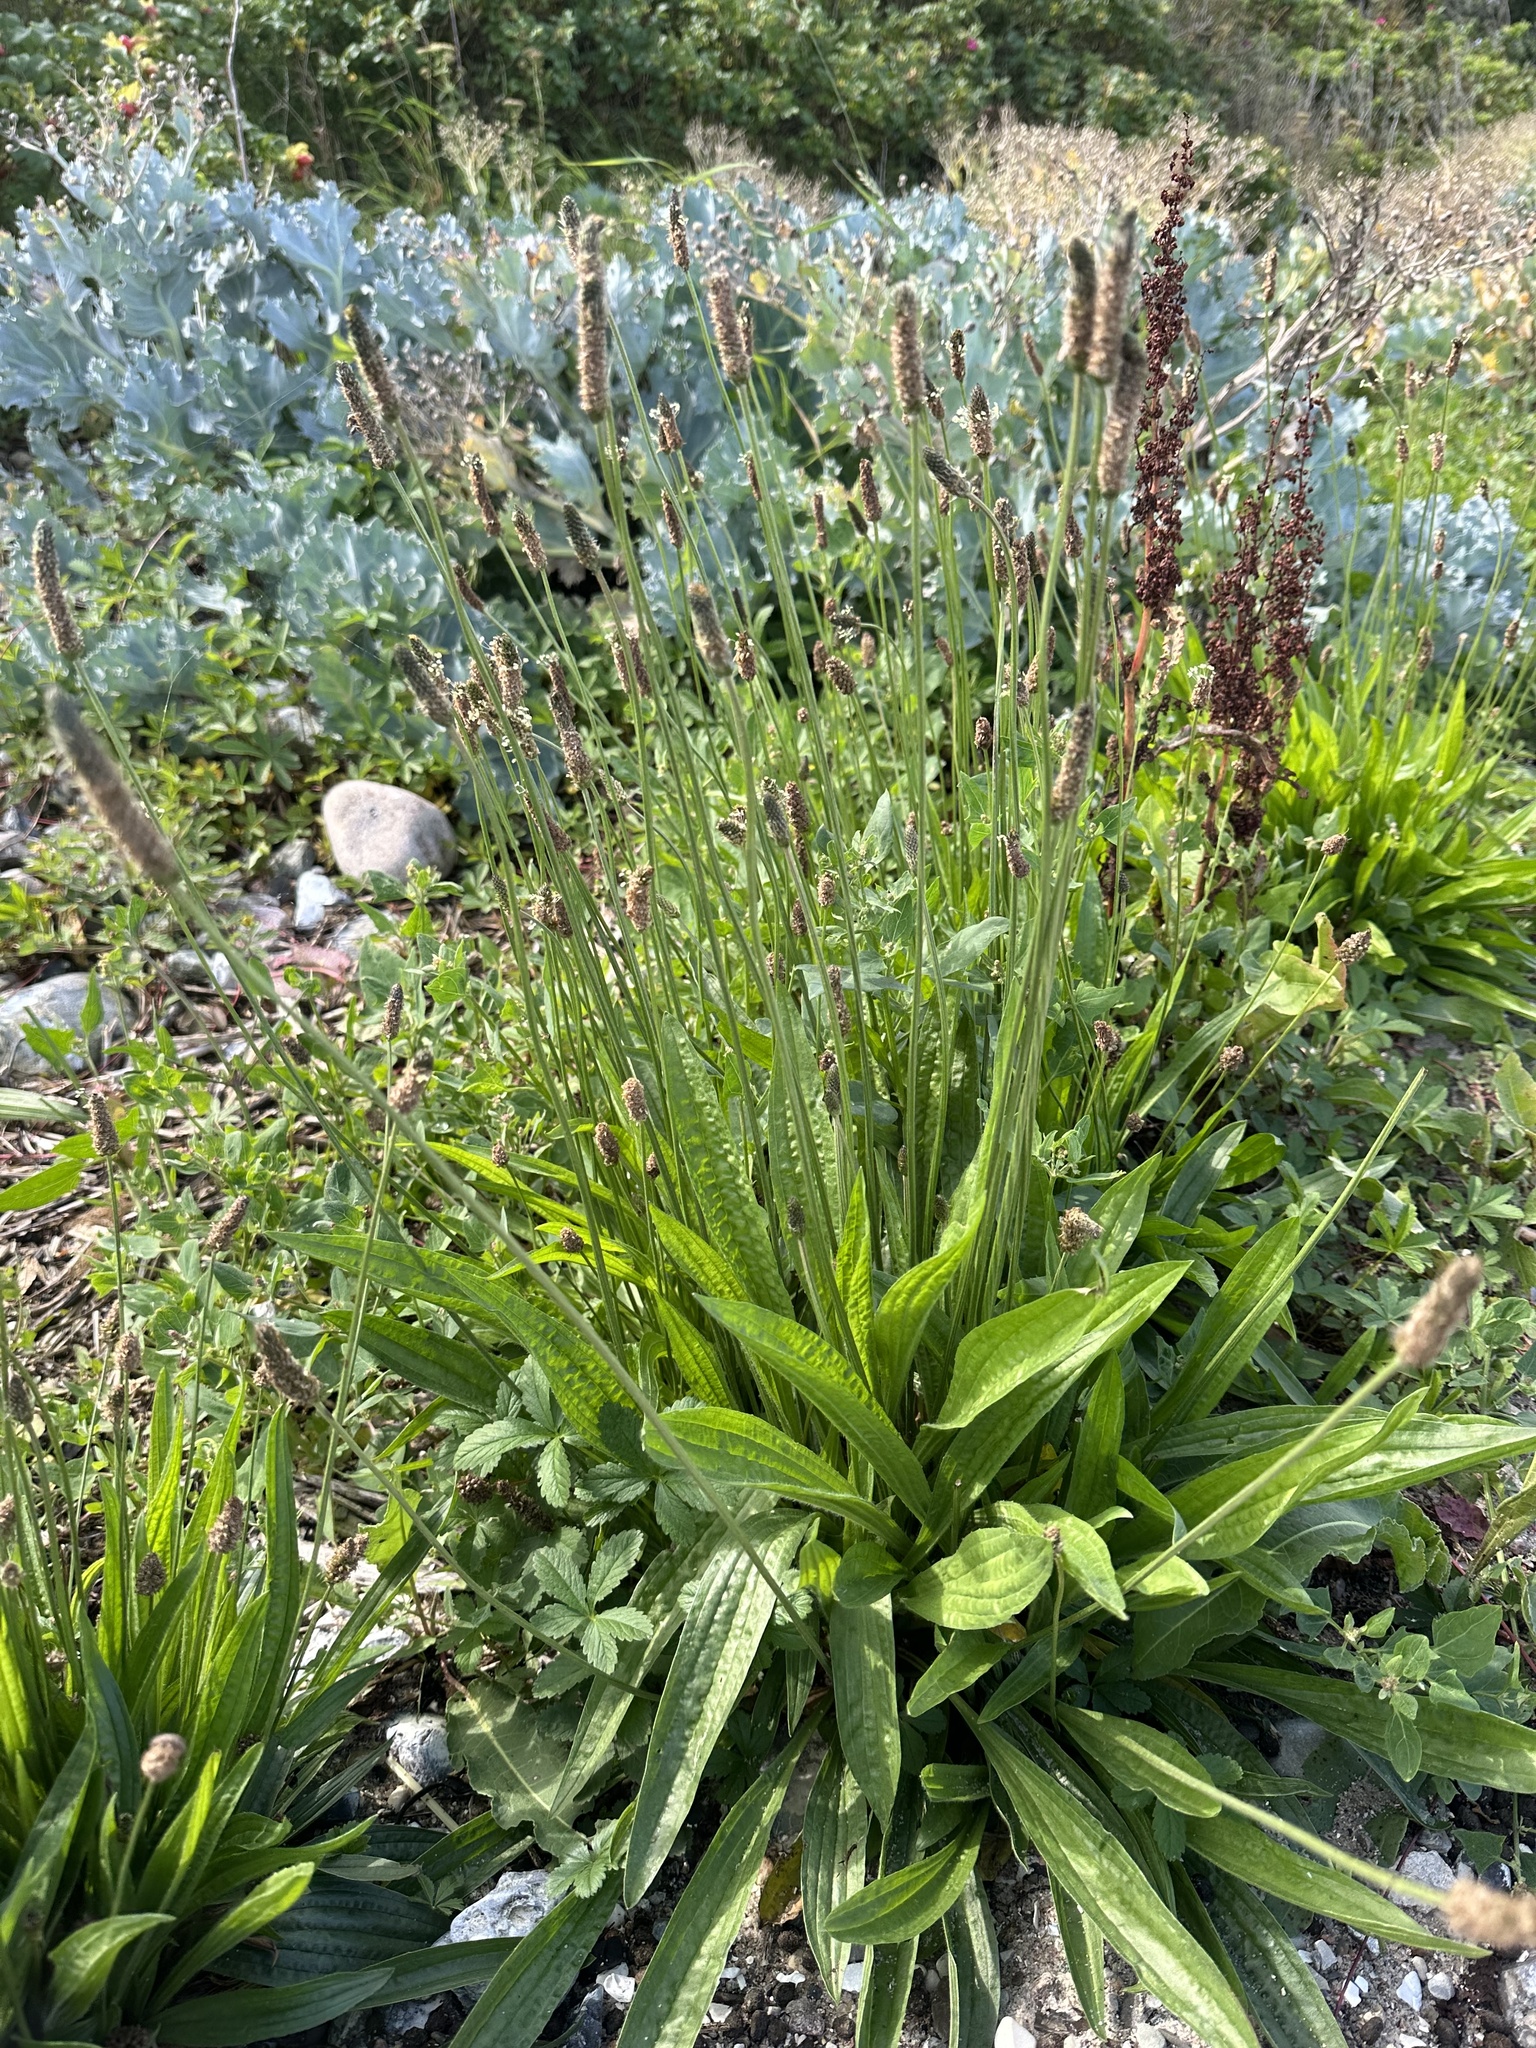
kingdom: Plantae
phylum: Tracheophyta
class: Magnoliopsida
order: Lamiales
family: Plantaginaceae
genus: Plantago
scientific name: Plantago lanceolata
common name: Ribwort plantain
